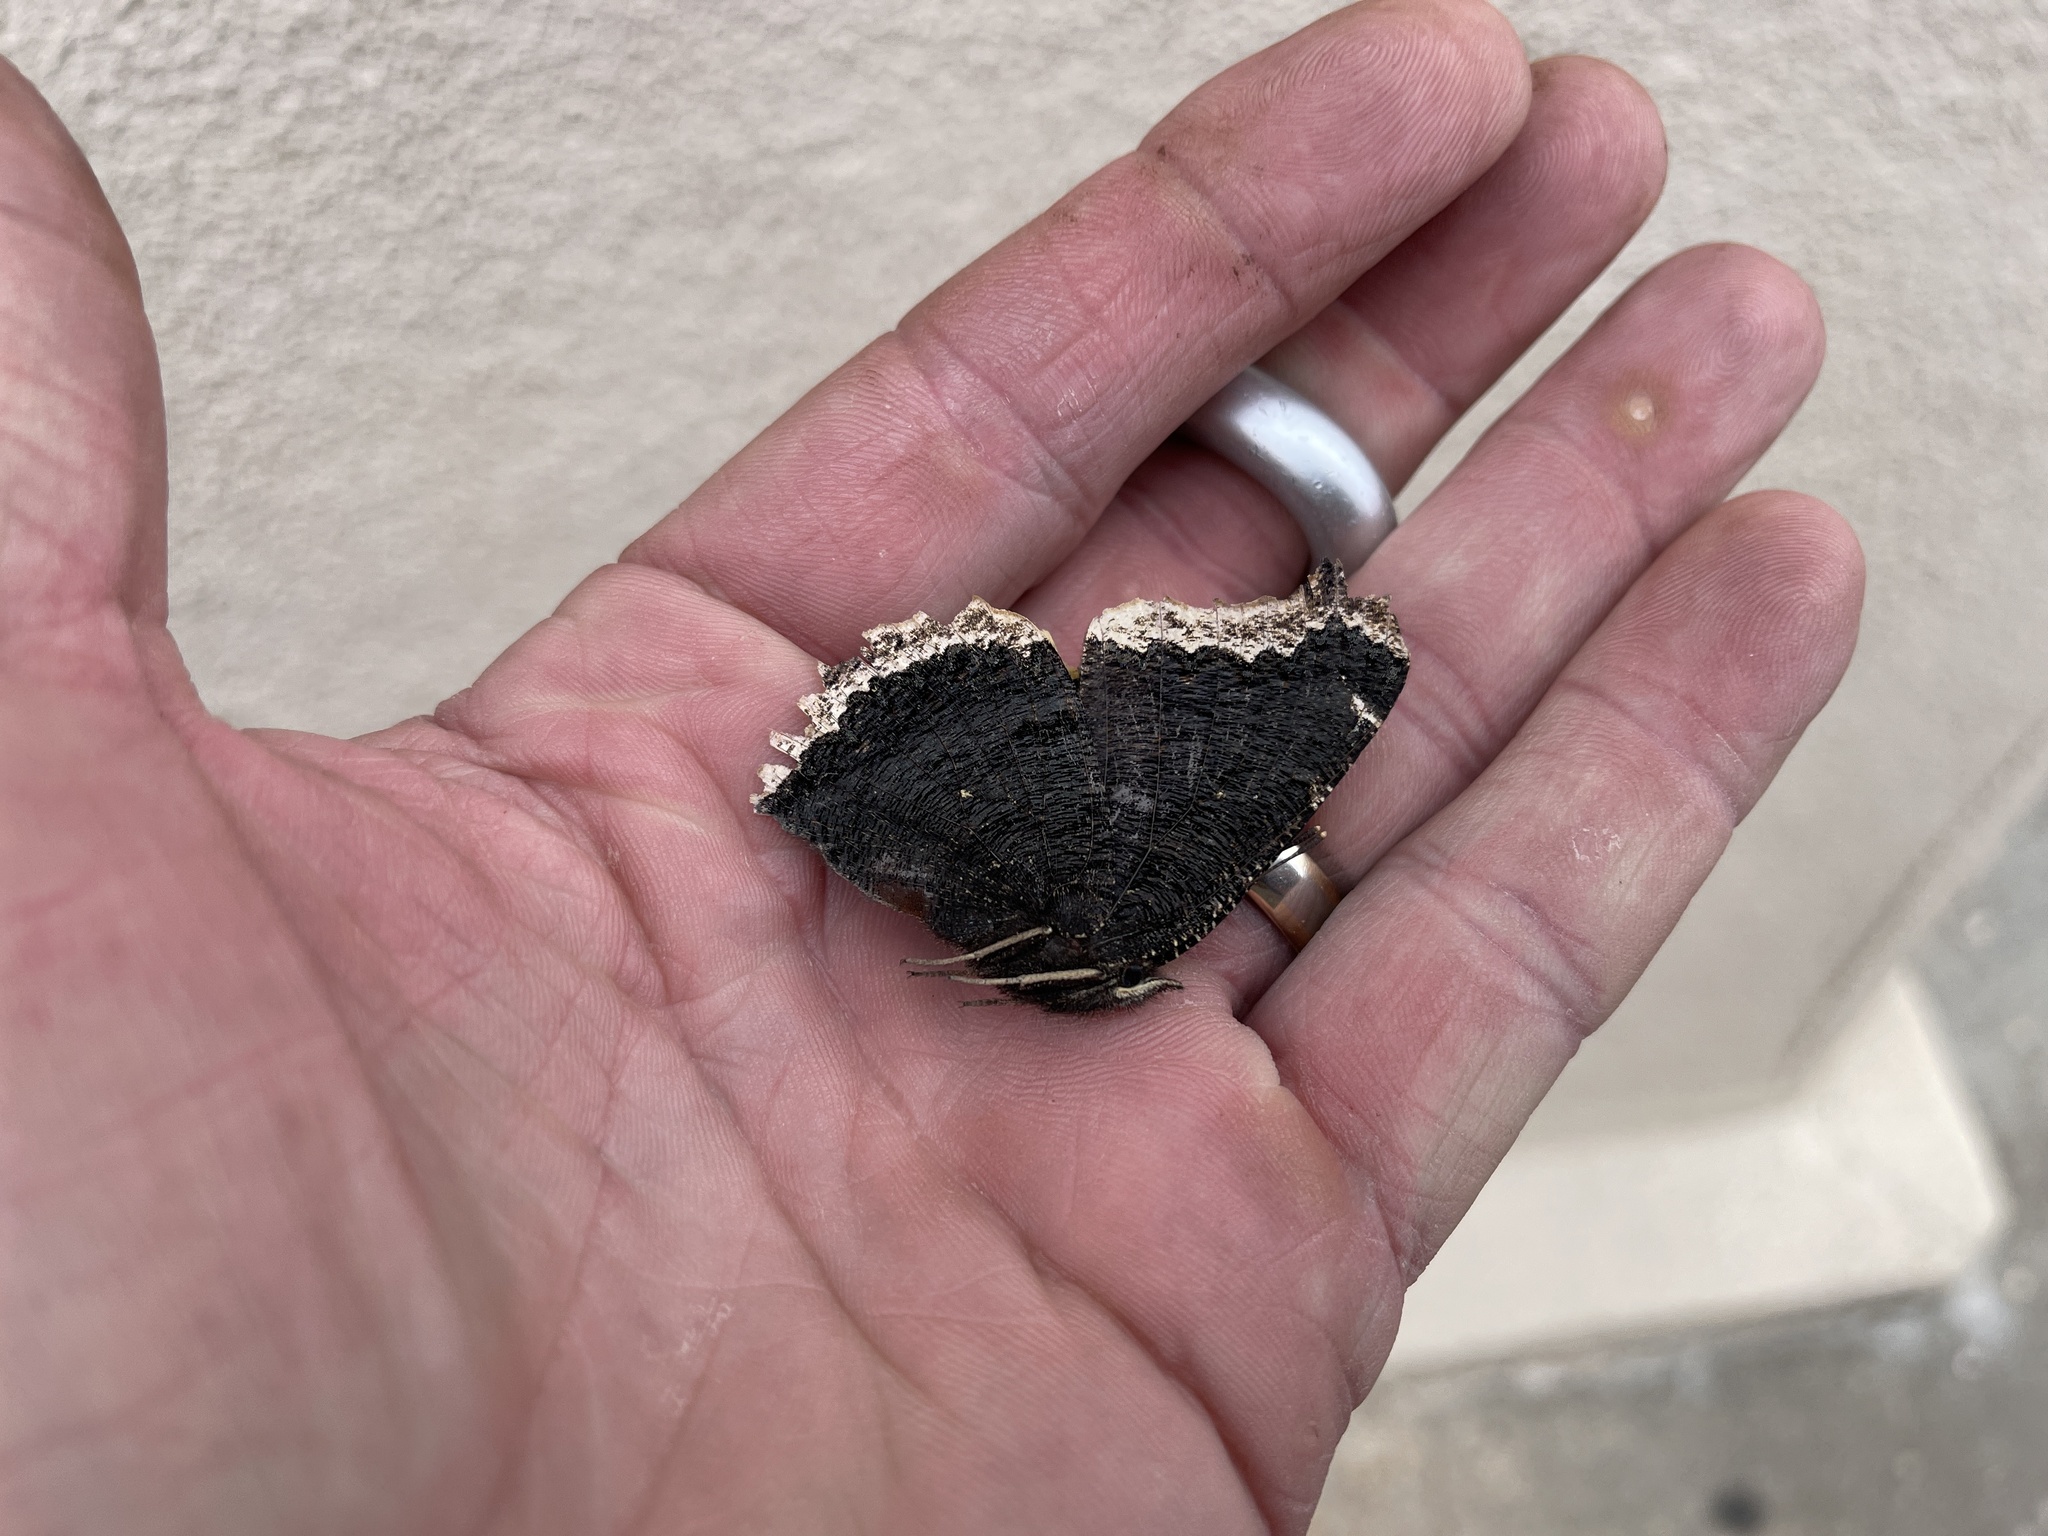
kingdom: Animalia
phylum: Arthropoda
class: Insecta
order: Lepidoptera
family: Nymphalidae
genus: Nymphalis
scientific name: Nymphalis antiopa
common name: Camberwell beauty
